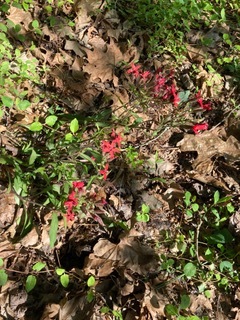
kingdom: Plantae
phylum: Tracheophyta
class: Magnoliopsida
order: Caryophyllales
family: Caryophyllaceae
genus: Silene
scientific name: Silene virginica
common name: Fire-pink
